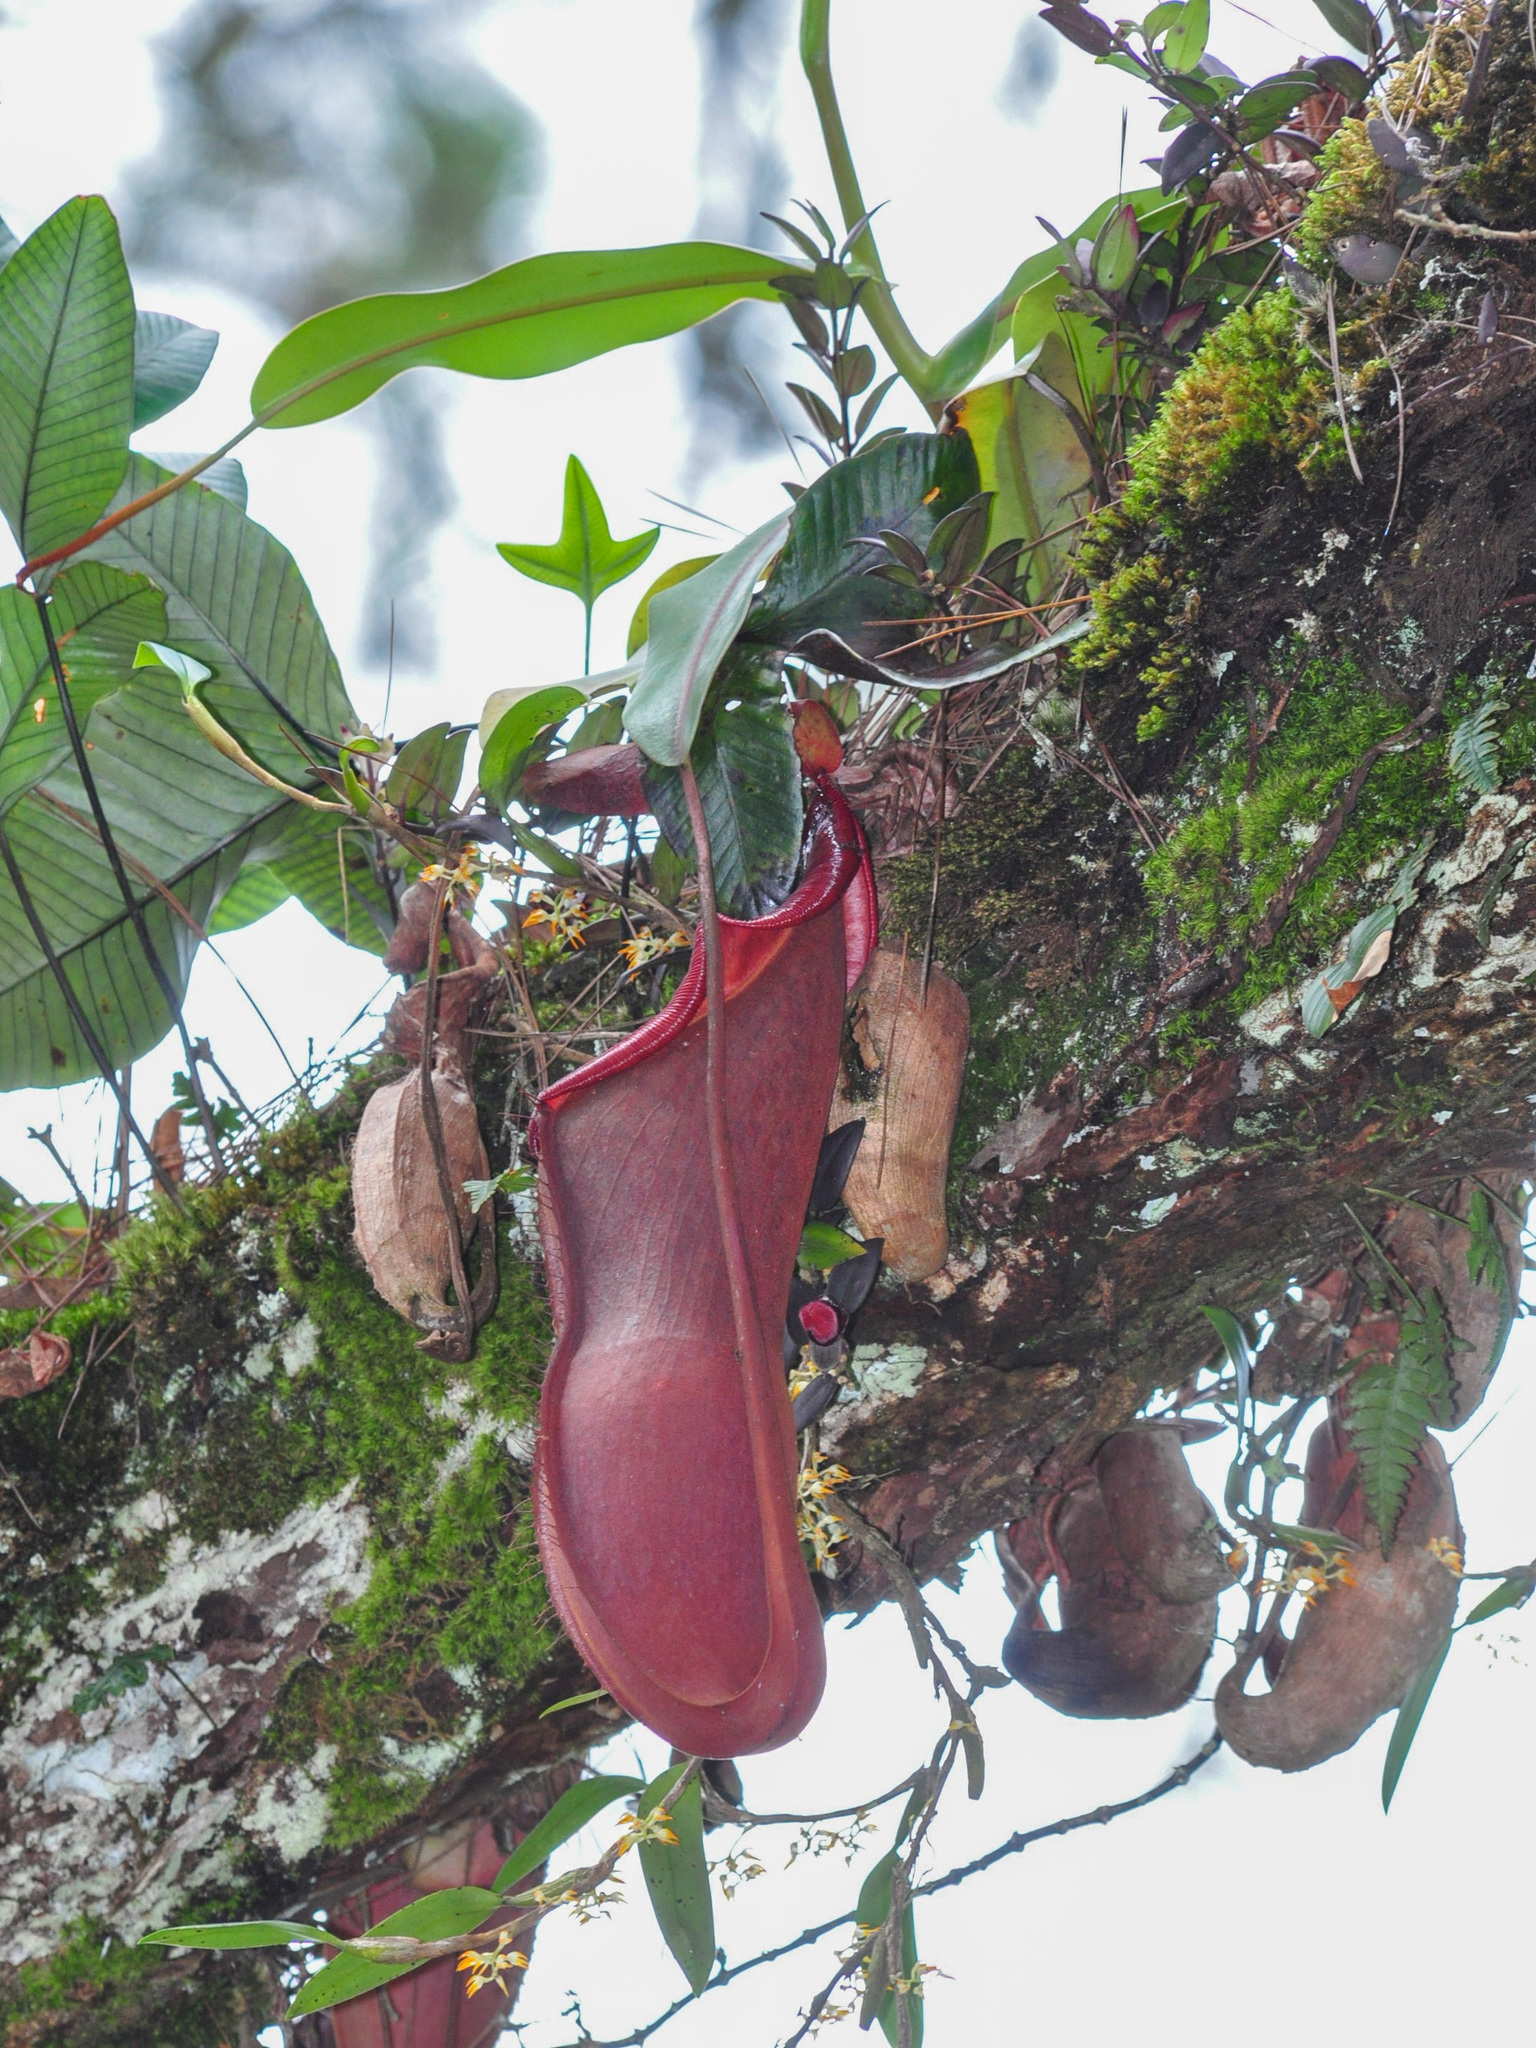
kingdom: Plantae
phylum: Tracheophyta
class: Magnoliopsida
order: Caryophyllales
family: Nepenthaceae
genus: Nepenthes
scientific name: Nepenthes sanguinea
